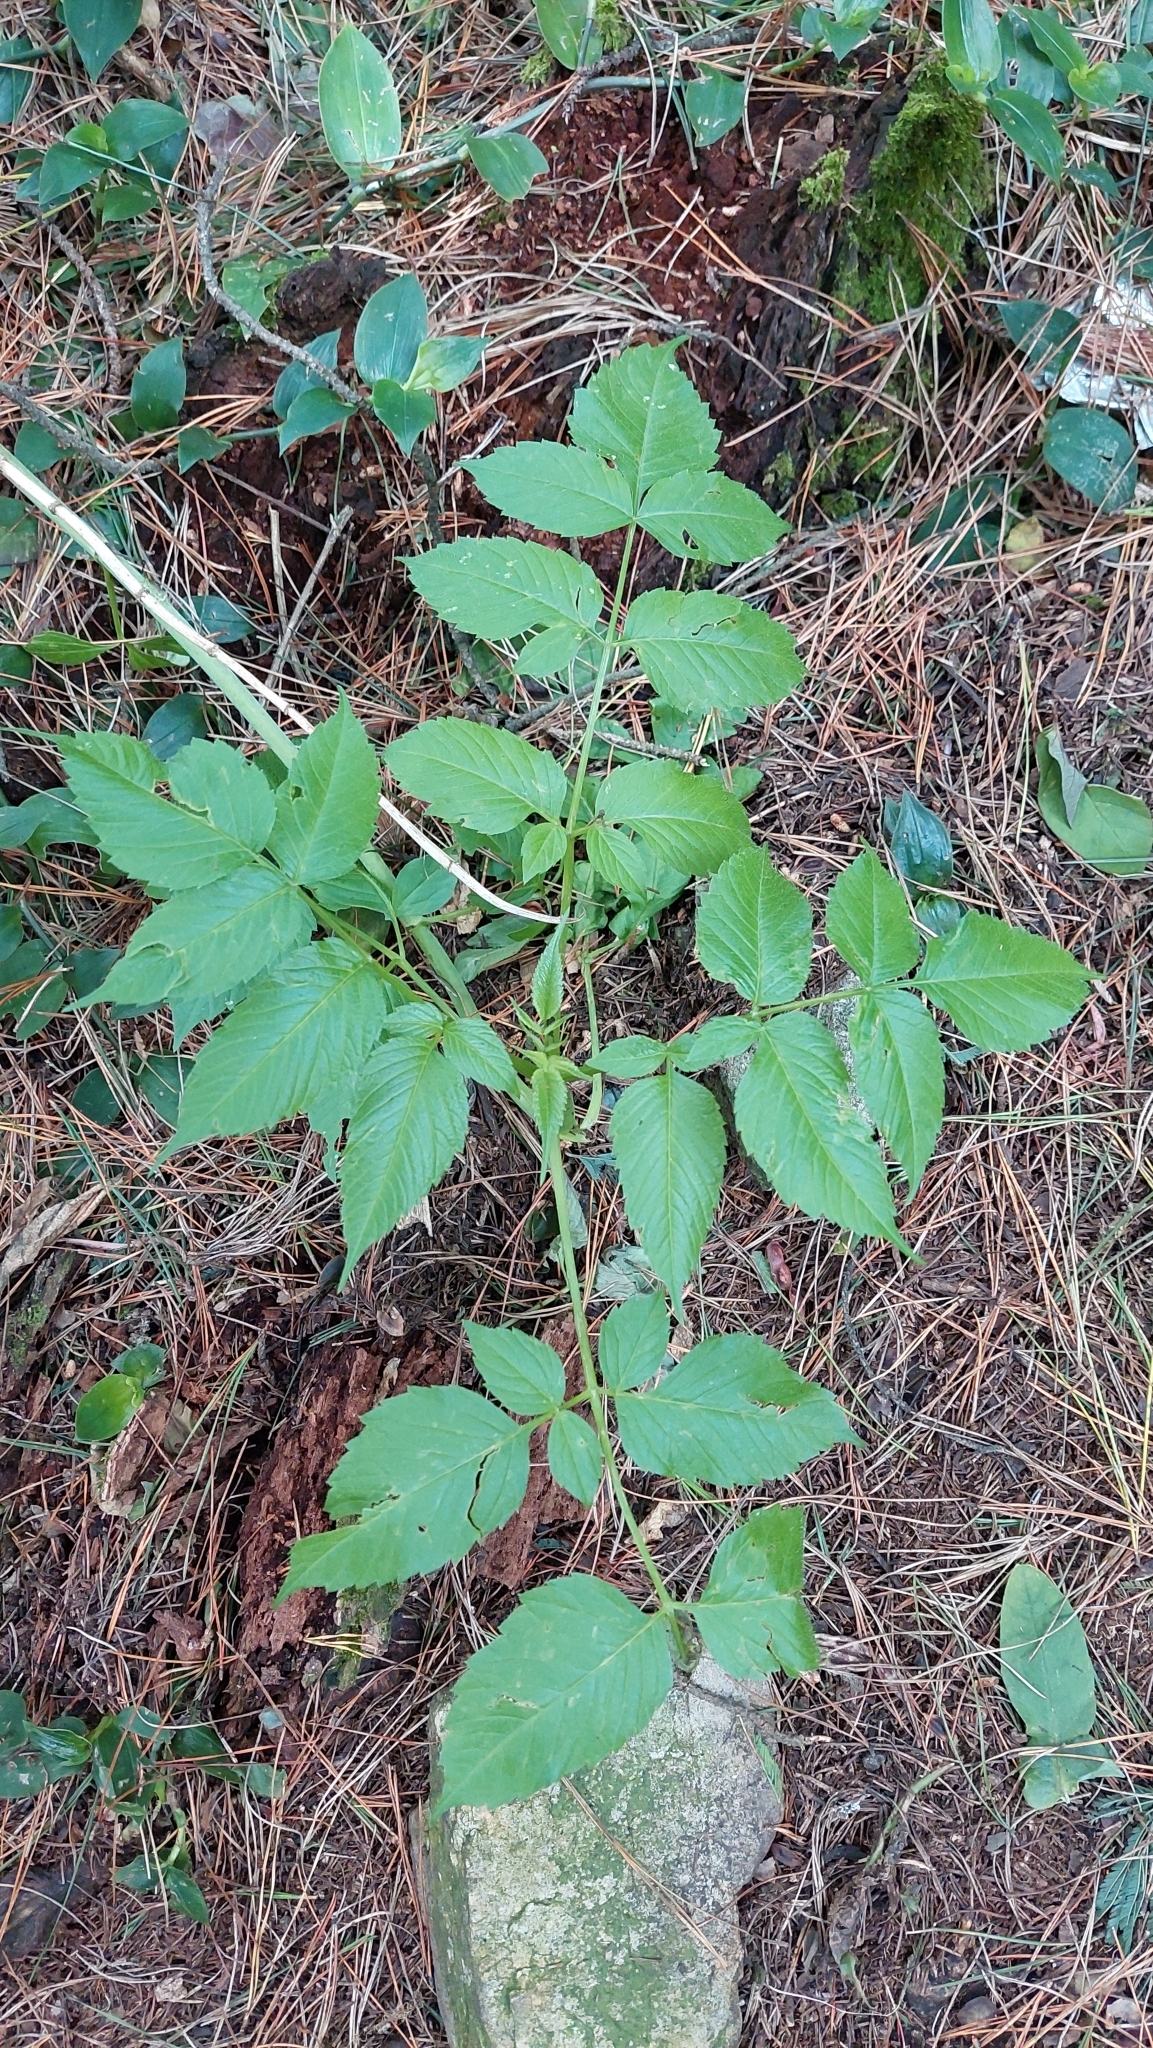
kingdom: Plantae
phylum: Tracheophyta
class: Magnoliopsida
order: Asterales
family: Asteraceae
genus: Dahlia
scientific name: Dahlia imperialis
